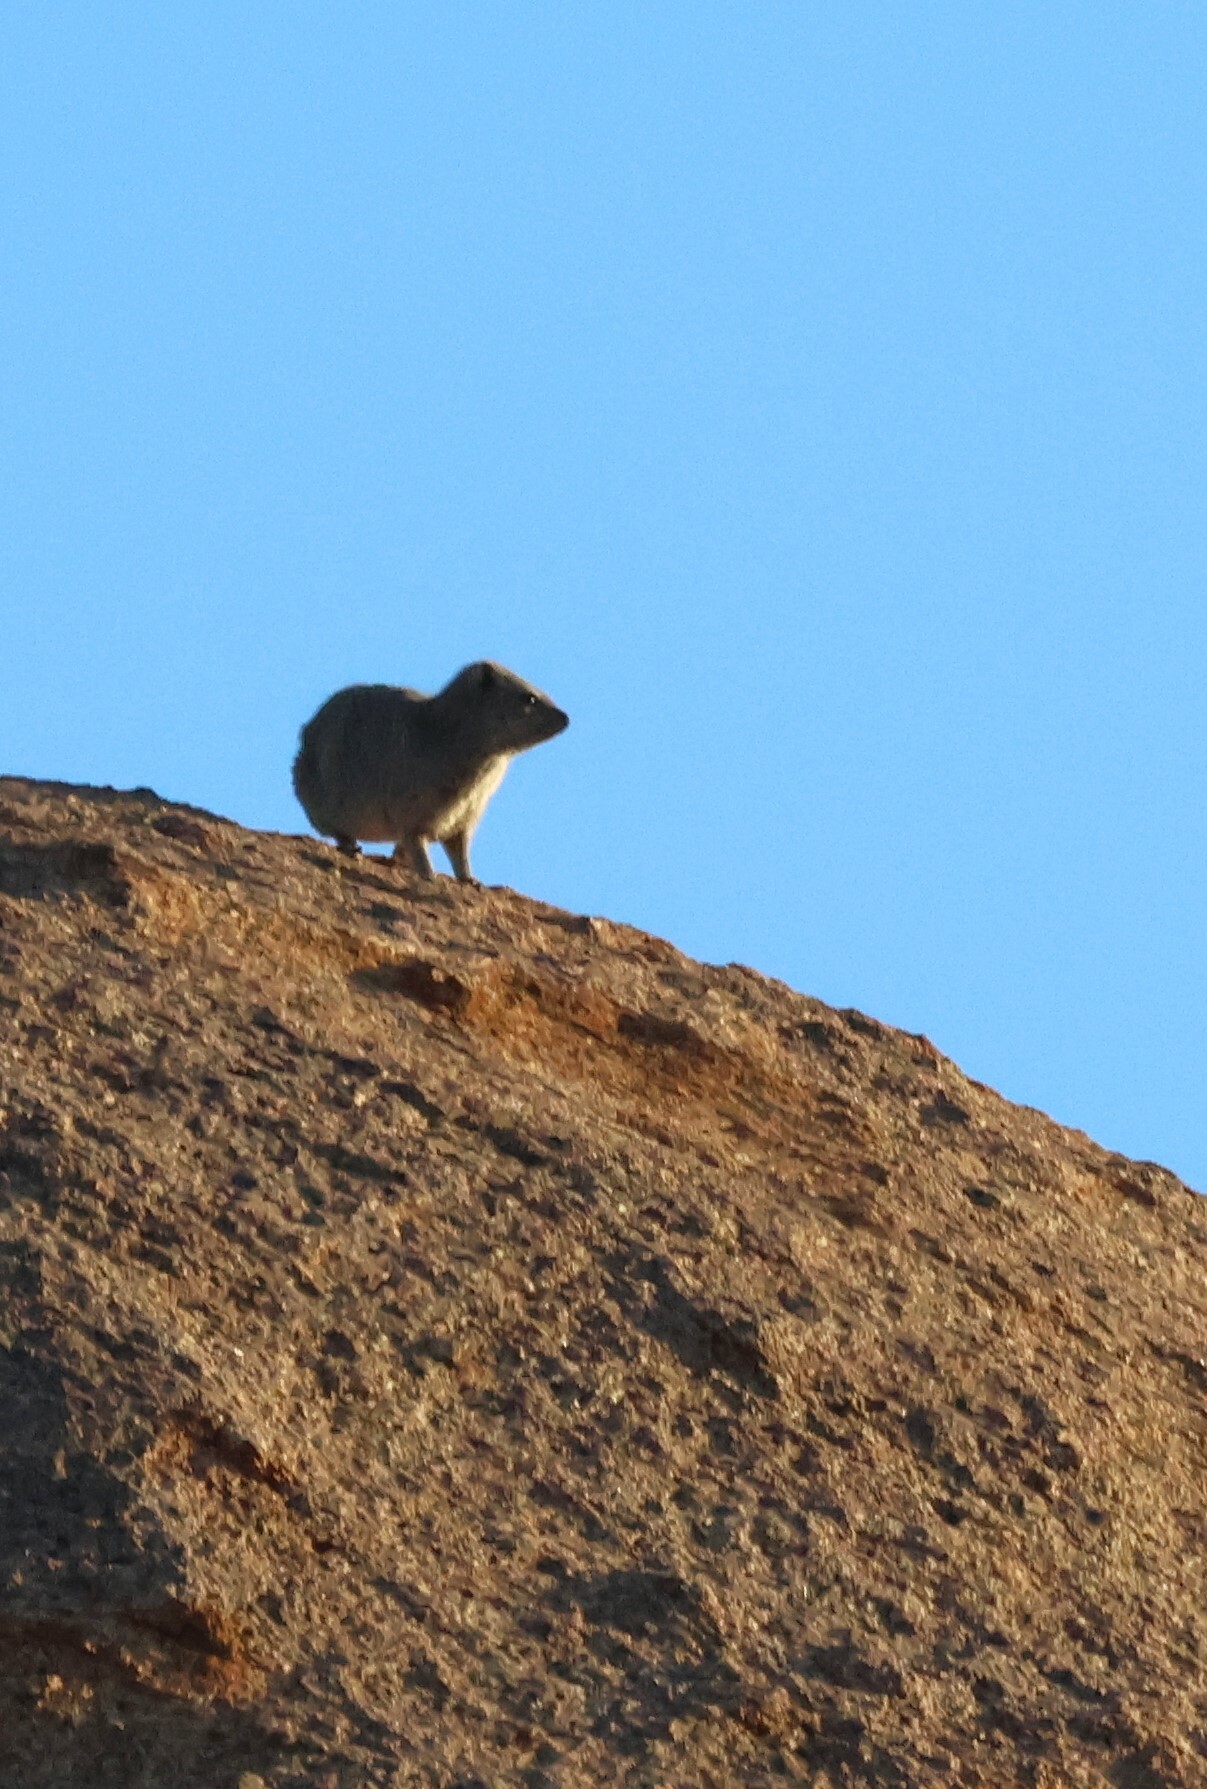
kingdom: Animalia
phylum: Chordata
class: Mammalia
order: Hyracoidea
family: Procaviidae
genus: Procavia
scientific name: Procavia capensis
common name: Rock hyrax
